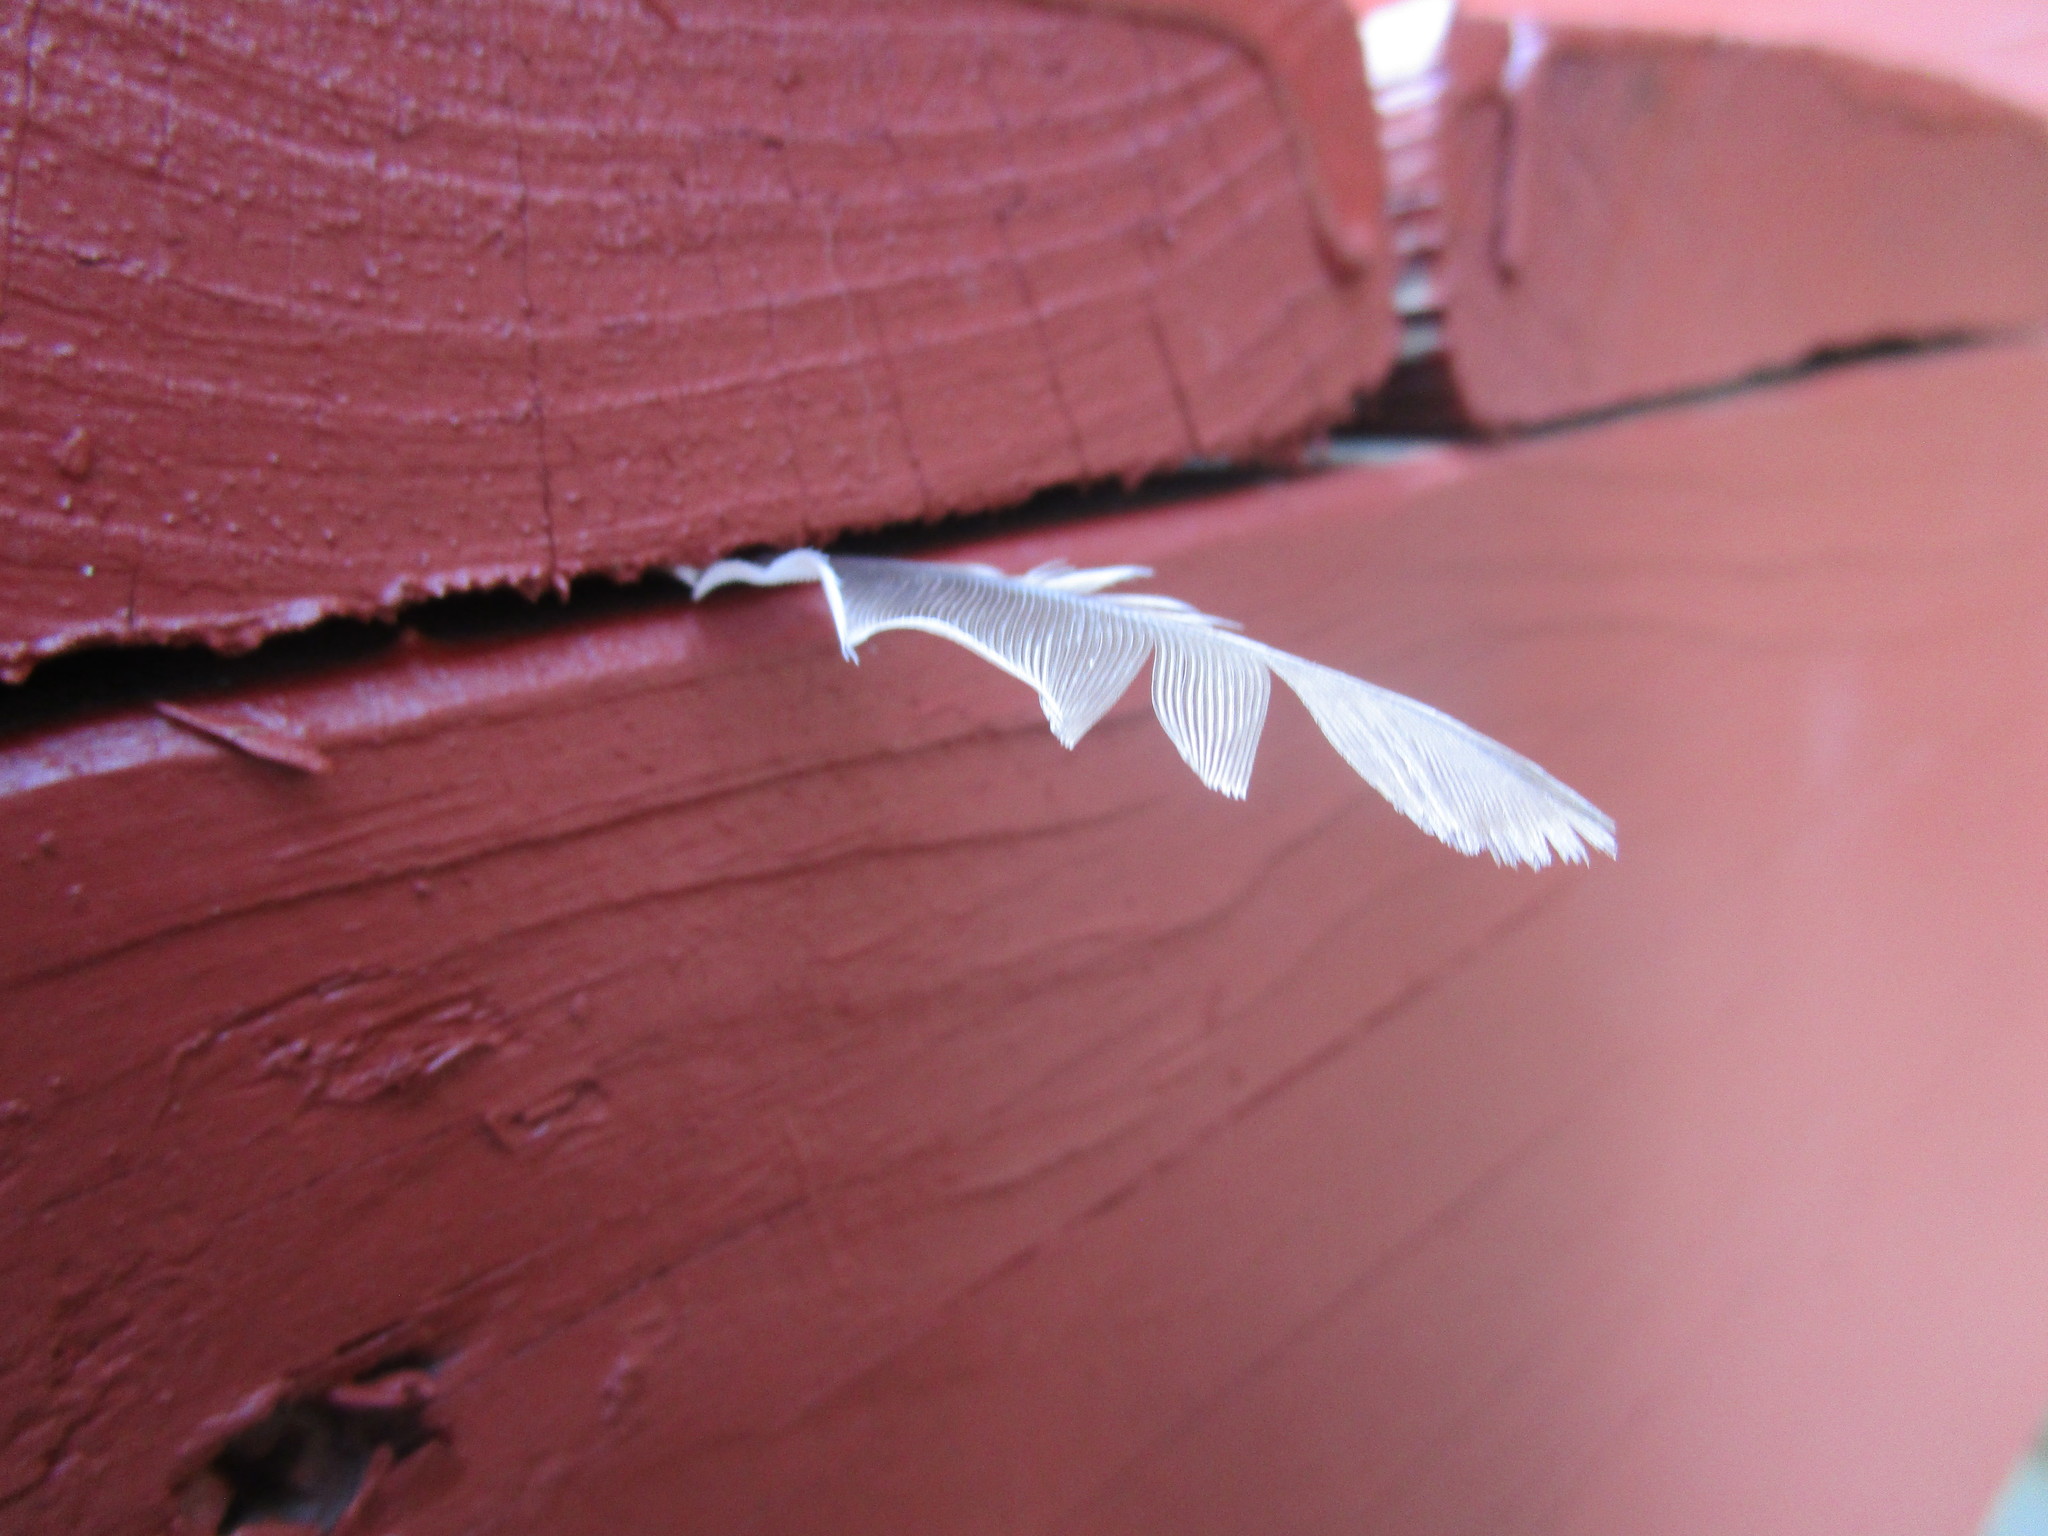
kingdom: Animalia
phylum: Chordata
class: Aves
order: Passeriformes
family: Passeridae
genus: Passer
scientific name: Passer domesticus
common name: House sparrow
